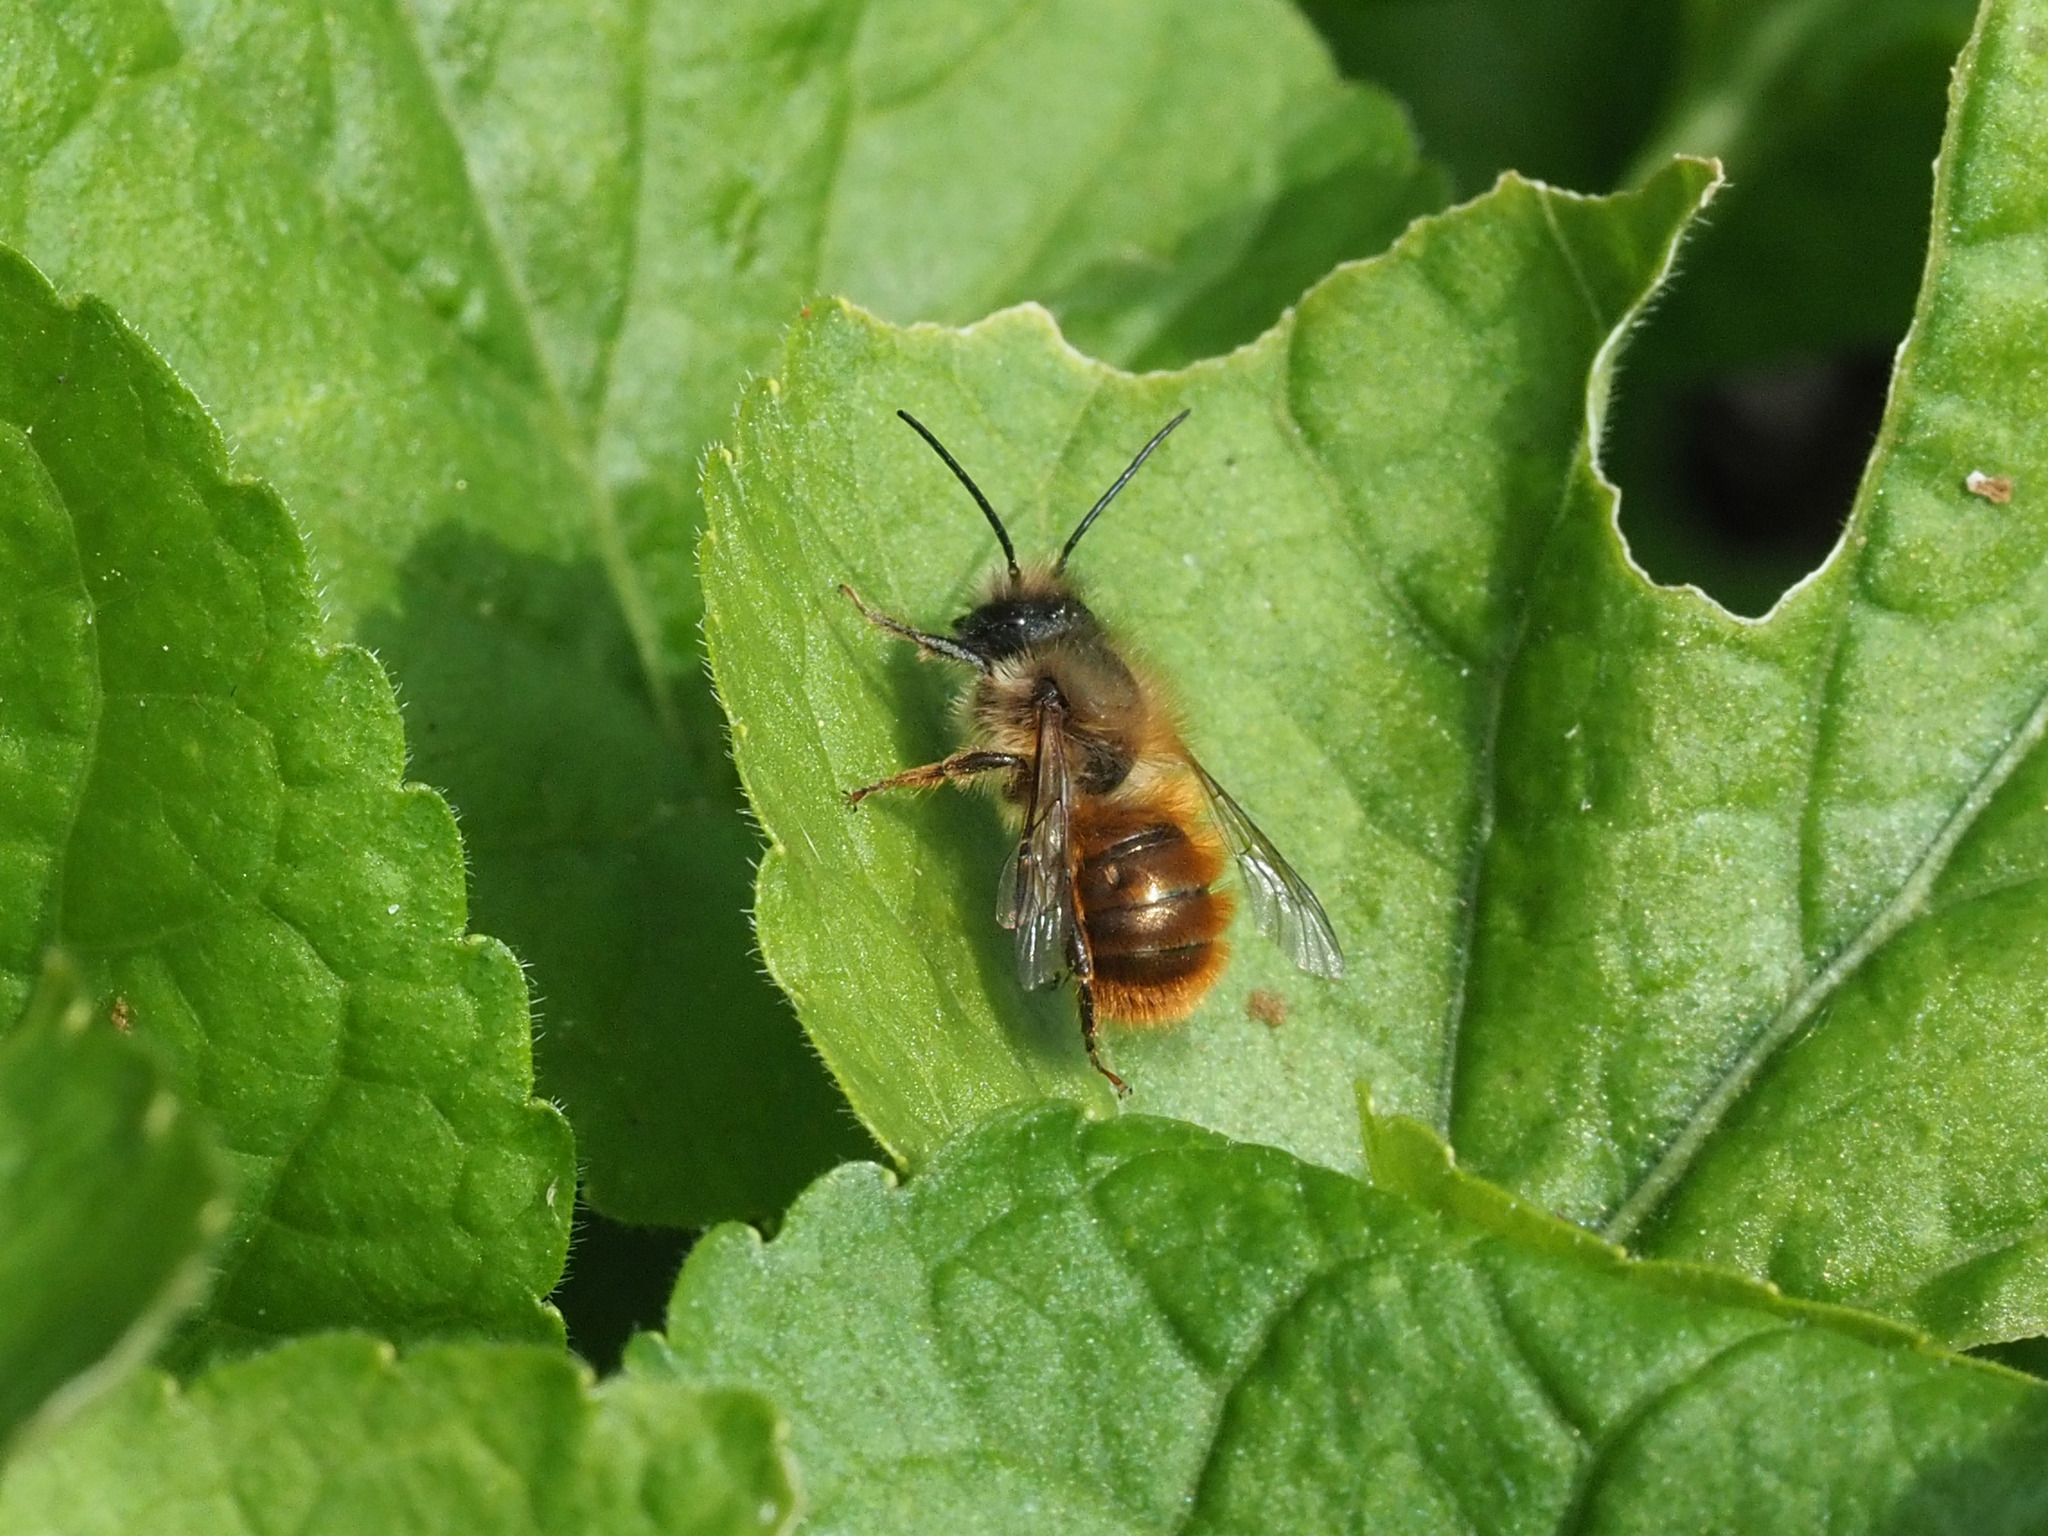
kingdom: Animalia
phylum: Arthropoda
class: Insecta
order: Hymenoptera
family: Megachilidae
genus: Osmia
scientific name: Osmia bicornis
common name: Red mason bee
